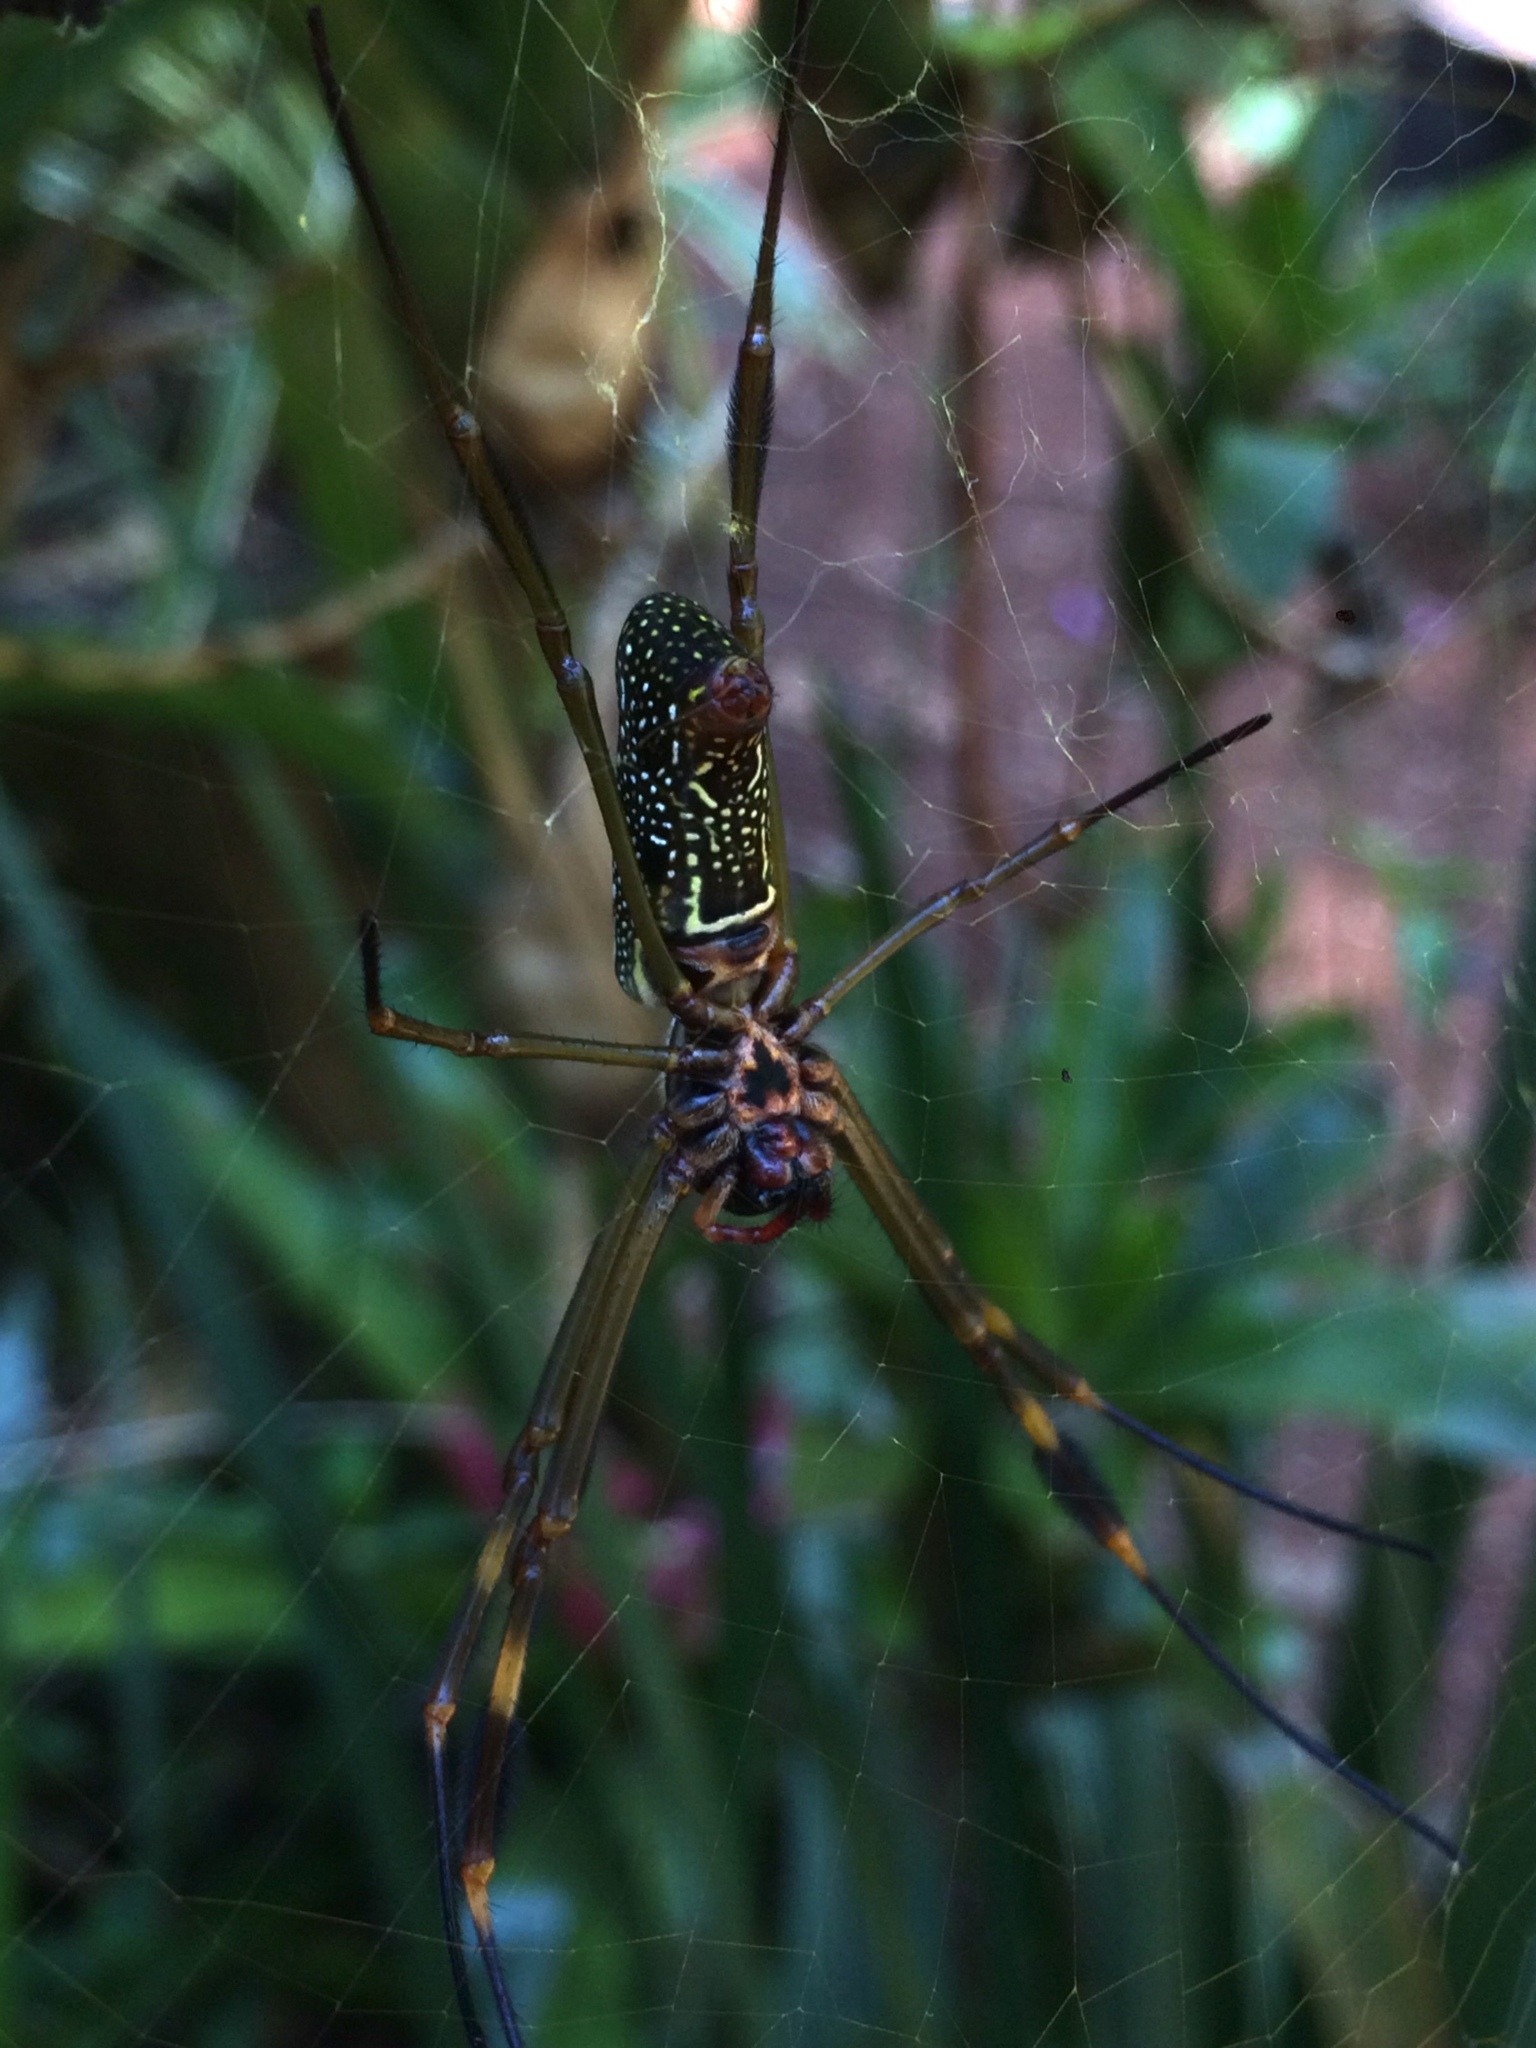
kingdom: Animalia
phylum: Arthropoda
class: Arachnida
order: Araneae
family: Araneidae
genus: Trichonephila
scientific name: Trichonephila clavipes
